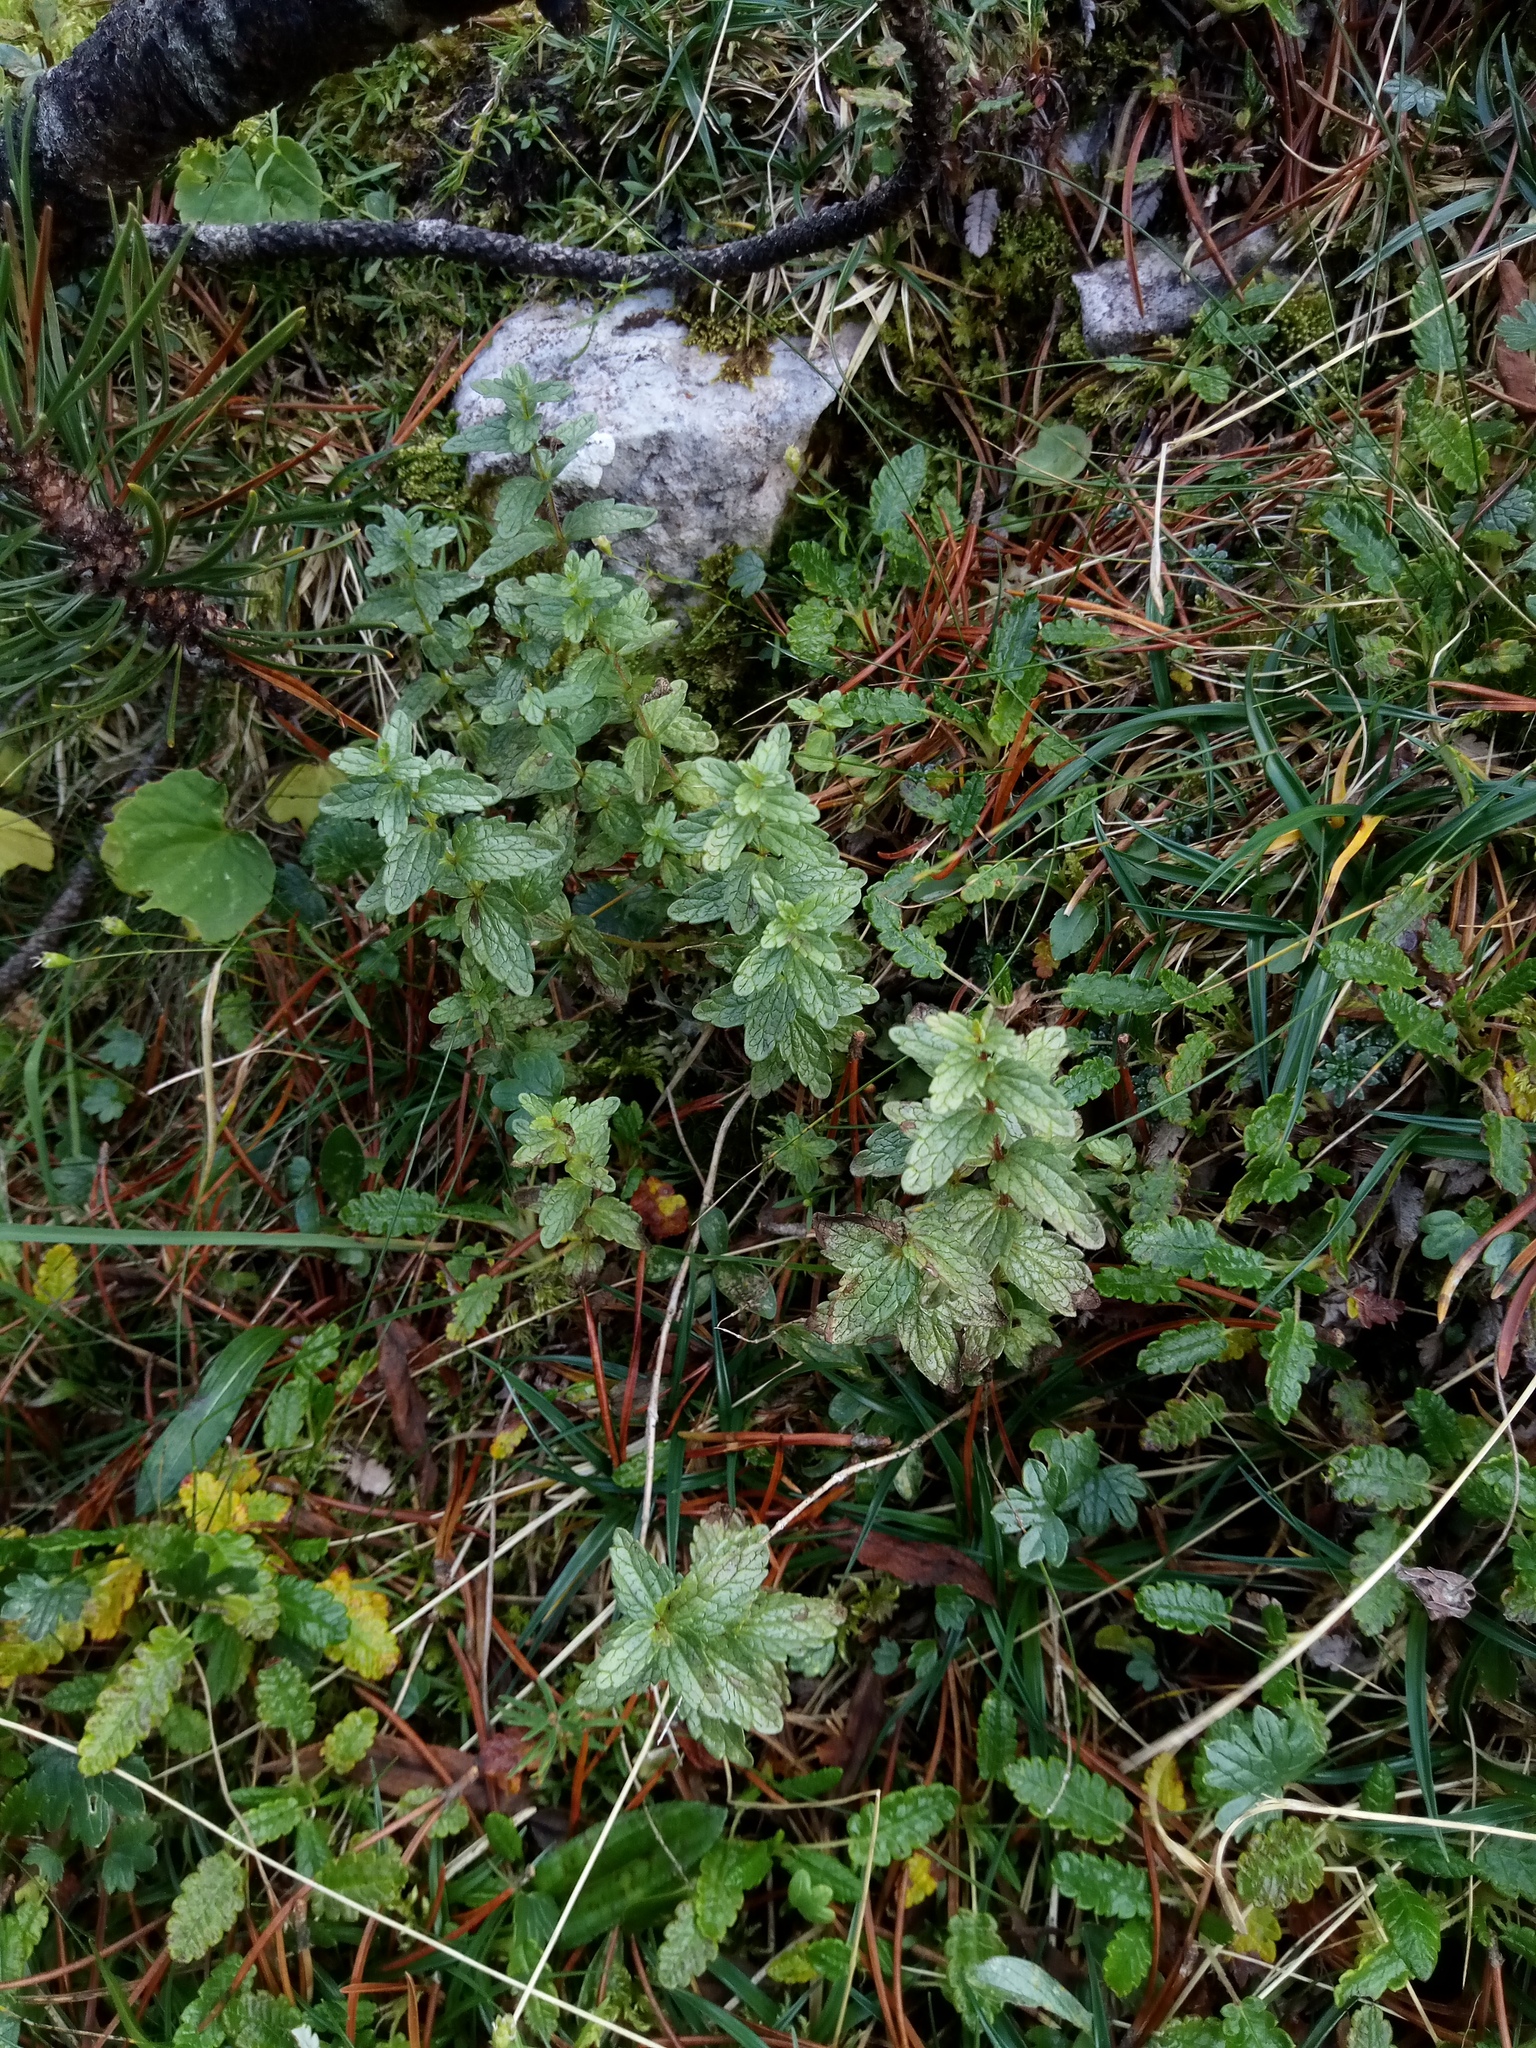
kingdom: Plantae
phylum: Tracheophyta
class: Magnoliopsida
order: Lamiales
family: Orobanchaceae
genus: Bartsia
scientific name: Bartsia alpina
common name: Alpine bartsia
